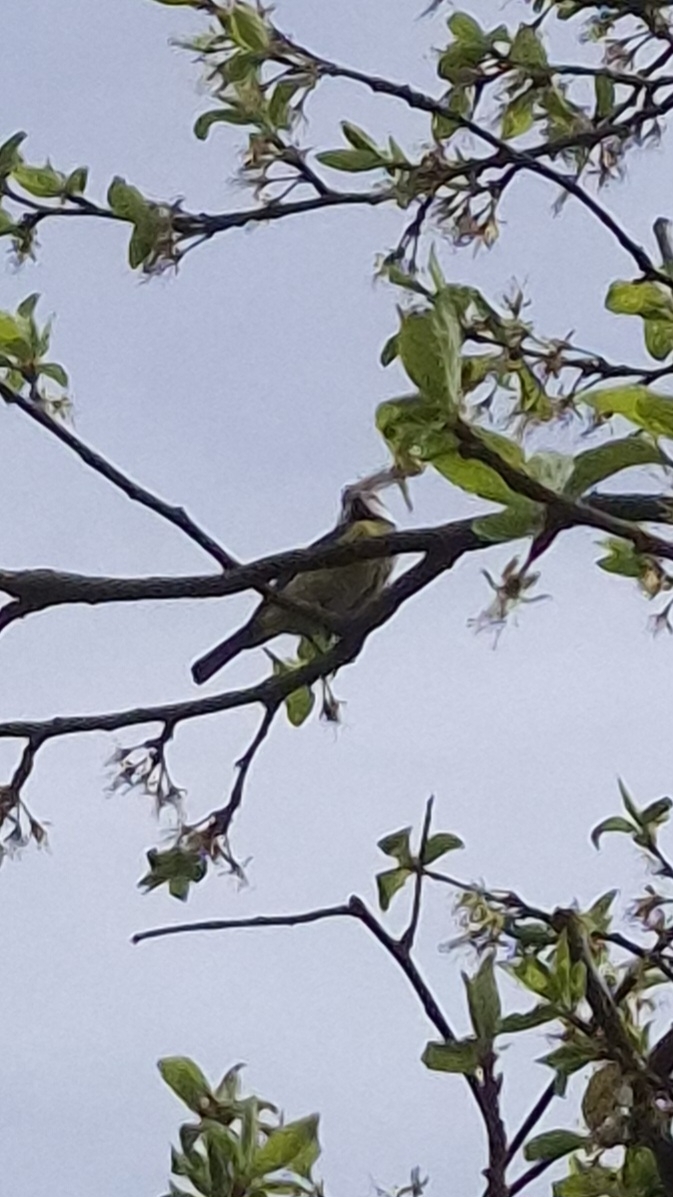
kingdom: Animalia
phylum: Chordata
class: Aves
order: Passeriformes
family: Paridae
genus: Cyanistes
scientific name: Cyanistes caeruleus
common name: Eurasian blue tit
